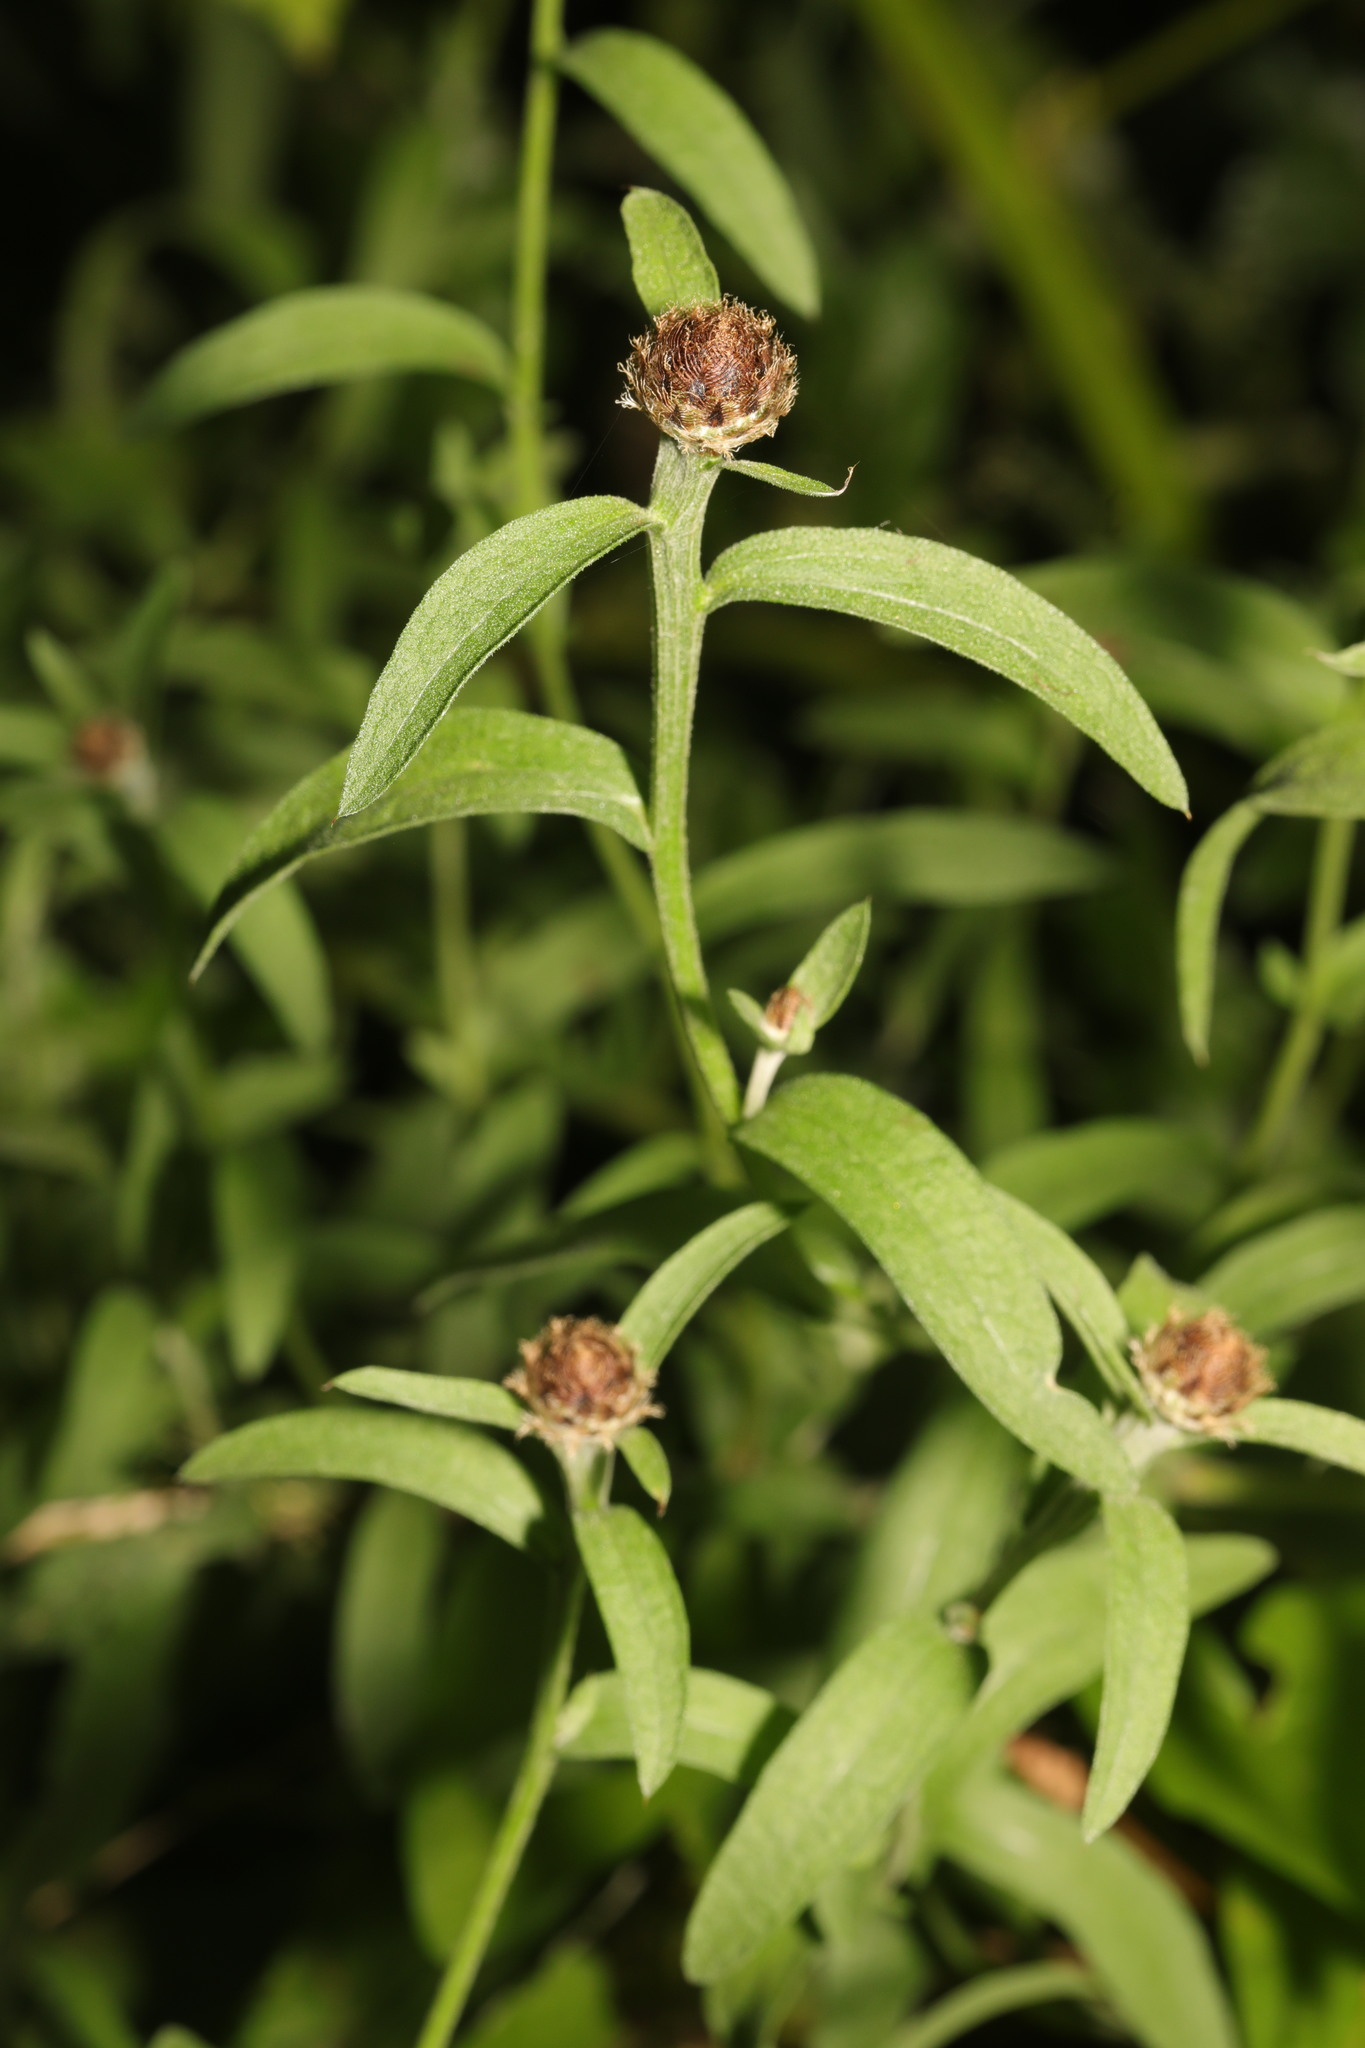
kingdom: Plantae
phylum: Tracheophyta
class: Magnoliopsida
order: Asterales
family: Asteraceae
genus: Centaurea
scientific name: Centaurea nigra
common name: Lesser knapweed
